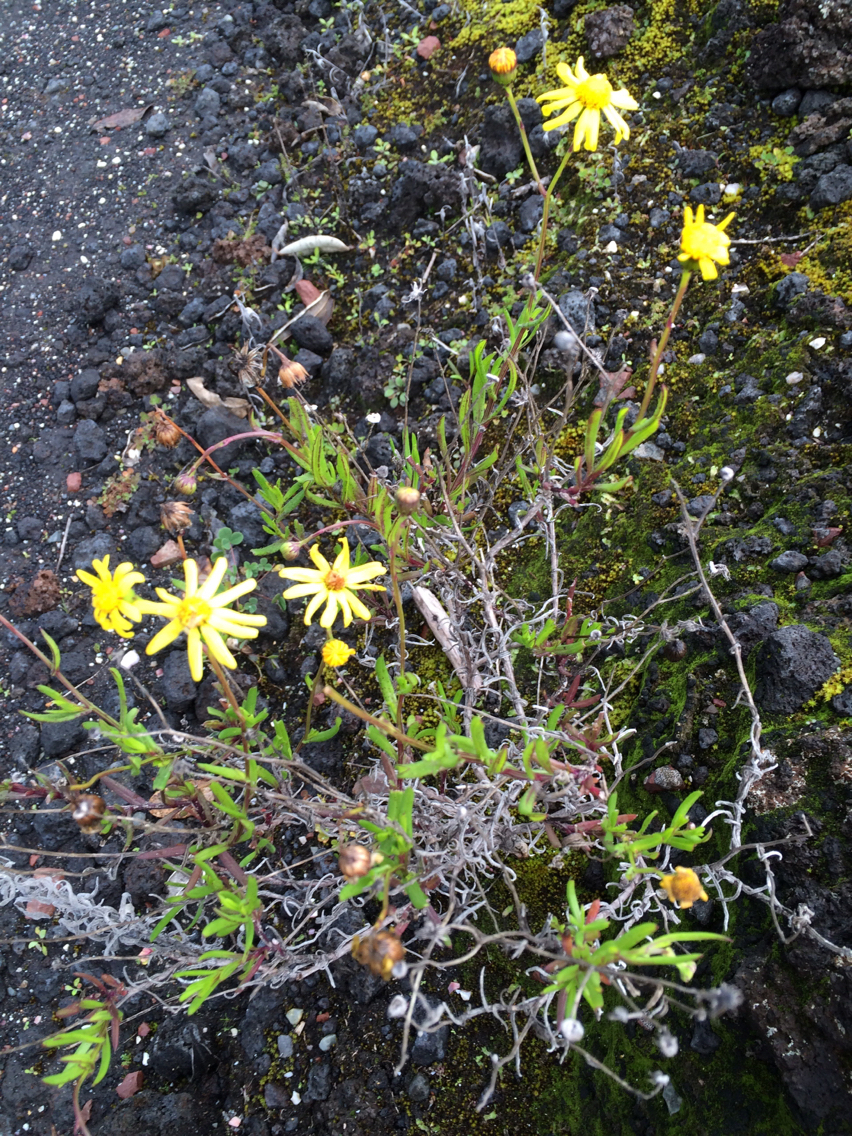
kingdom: Plantae
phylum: Tracheophyta
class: Magnoliopsida
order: Asterales
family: Asteraceae
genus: Senecio
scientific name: Senecio skirrhodon
